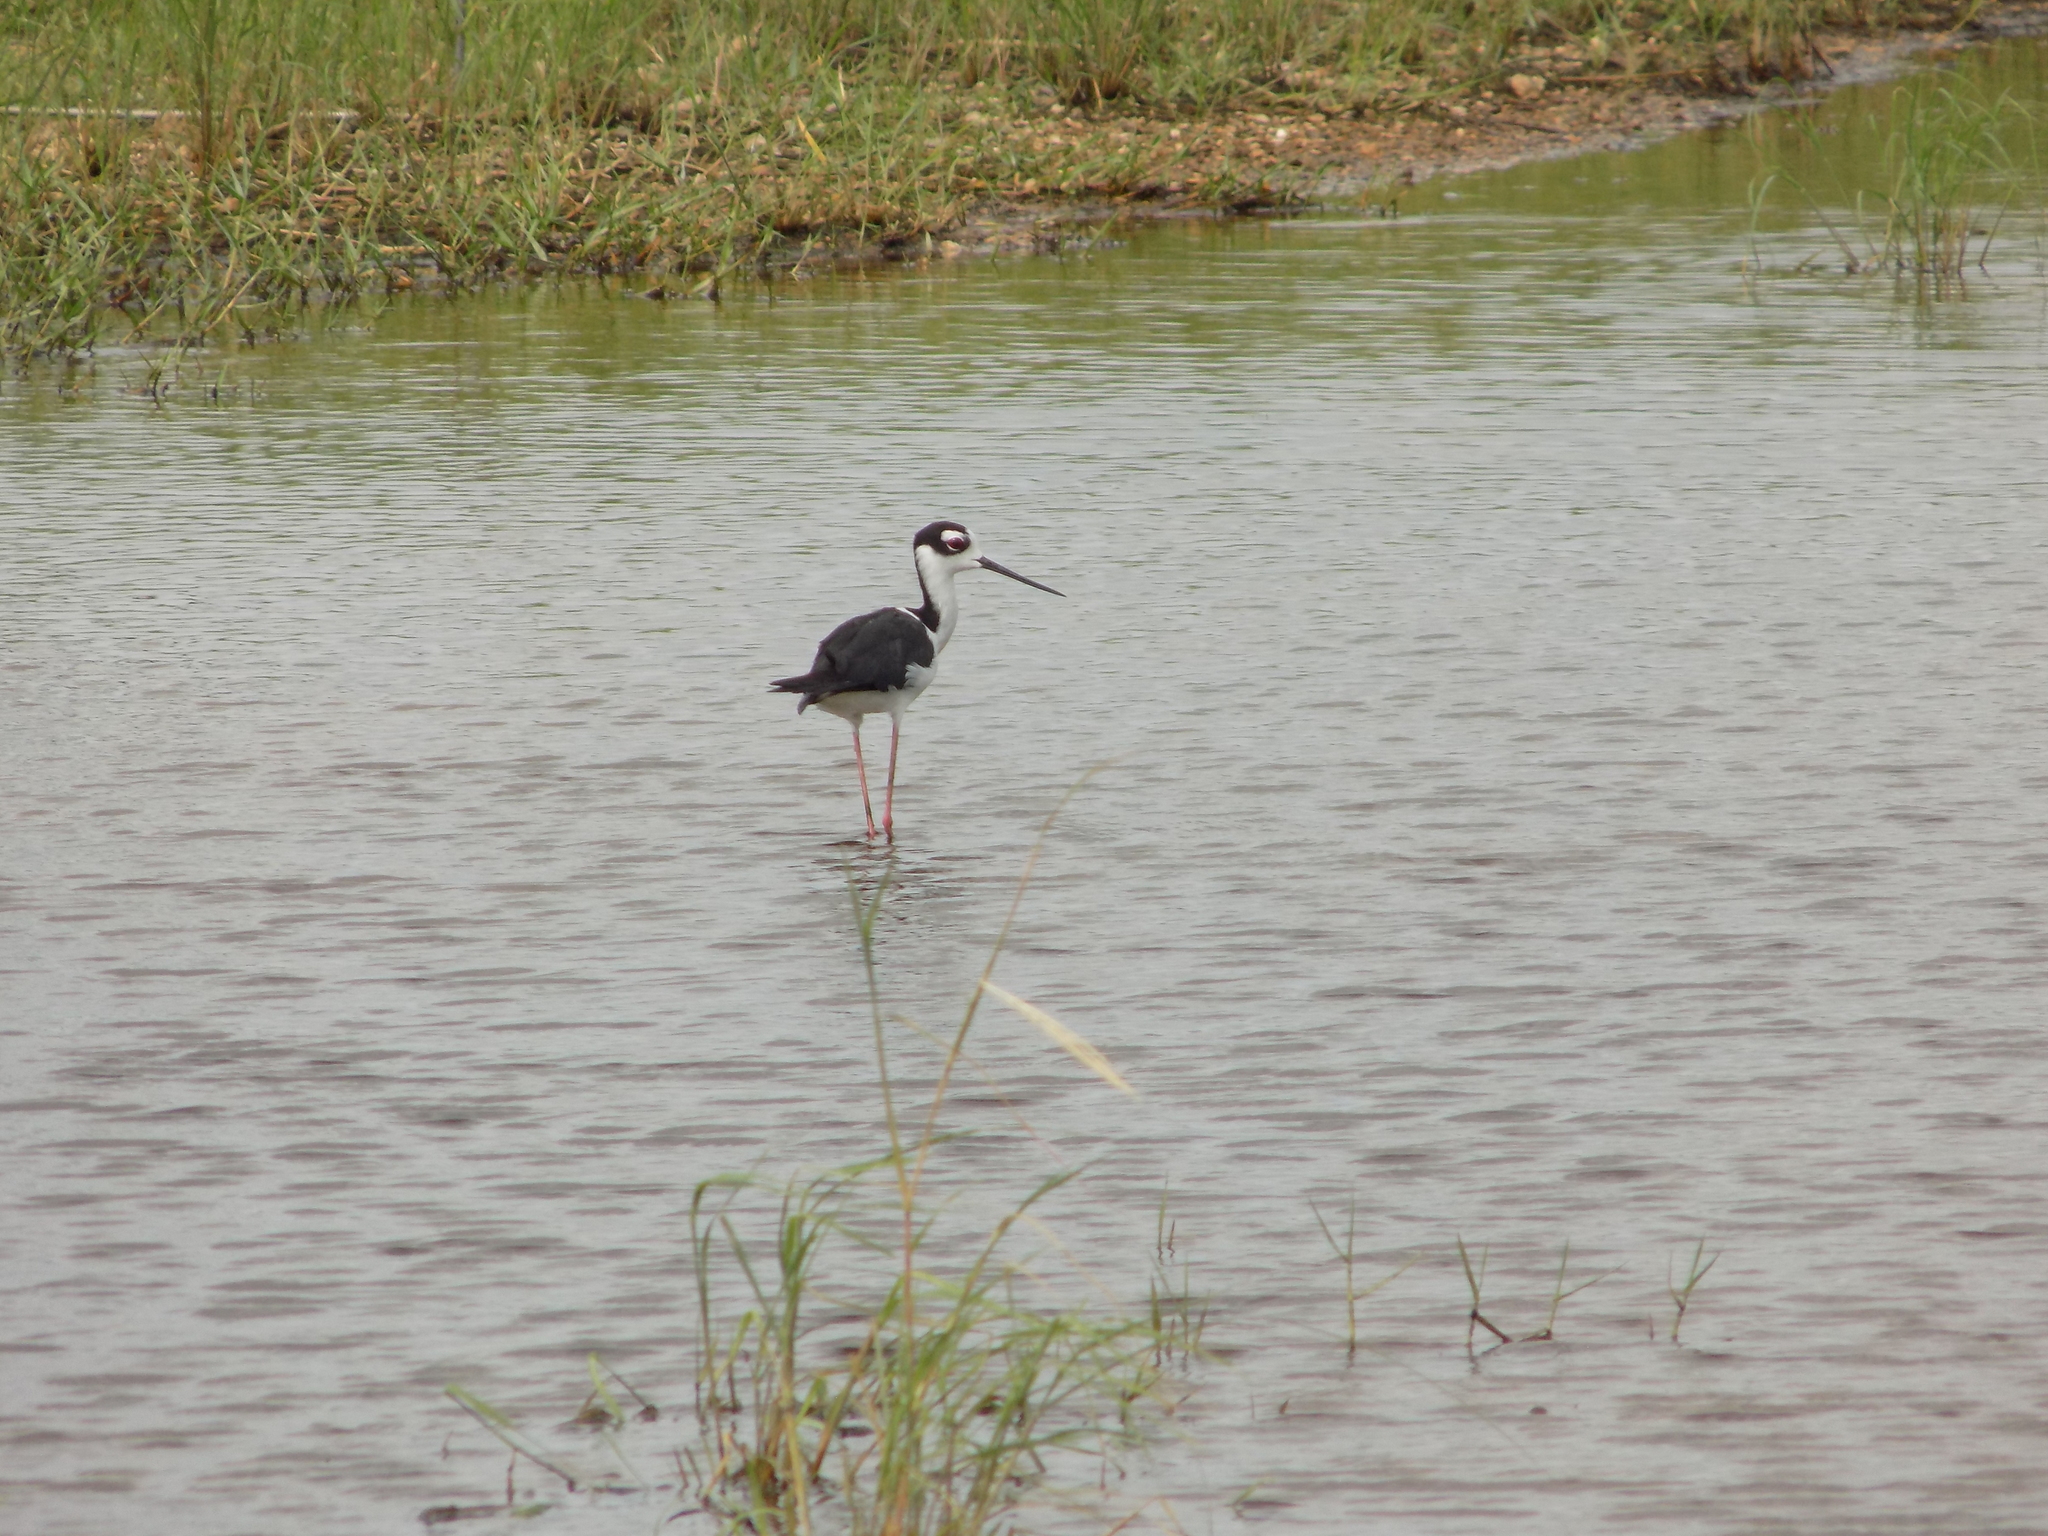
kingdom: Animalia
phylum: Chordata
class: Aves
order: Charadriiformes
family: Recurvirostridae
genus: Himantopus
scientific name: Himantopus mexicanus
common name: Black-necked stilt
